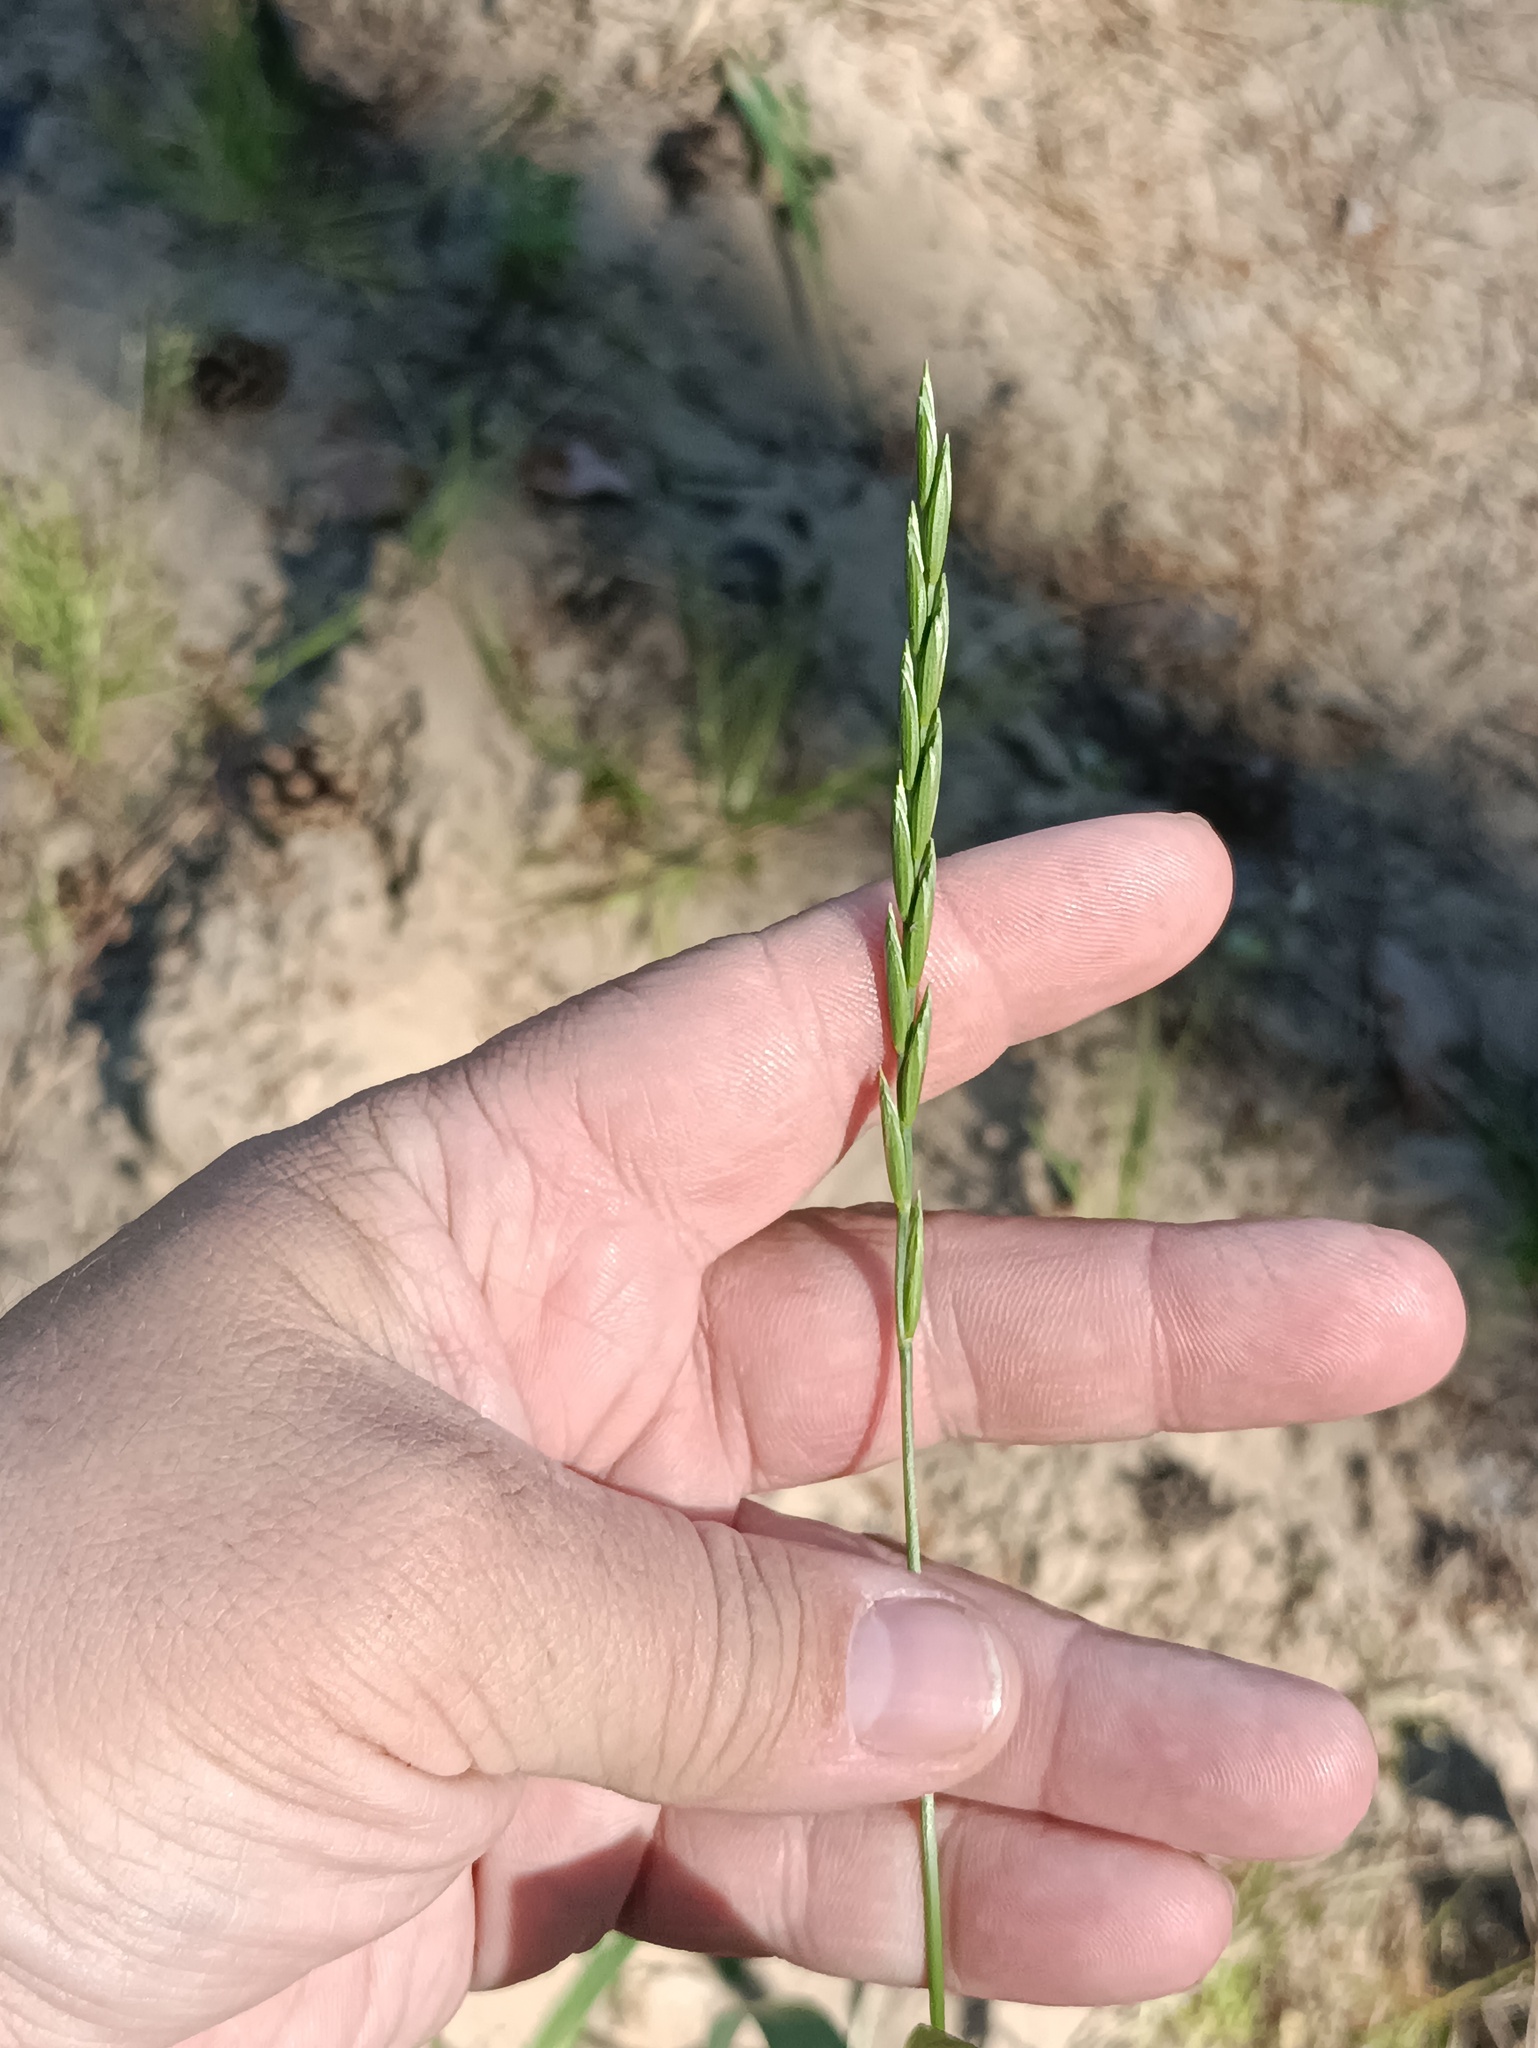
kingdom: Plantae
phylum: Tracheophyta
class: Liliopsida
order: Poales
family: Poaceae
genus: Elymus
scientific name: Elymus repens
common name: Quackgrass
